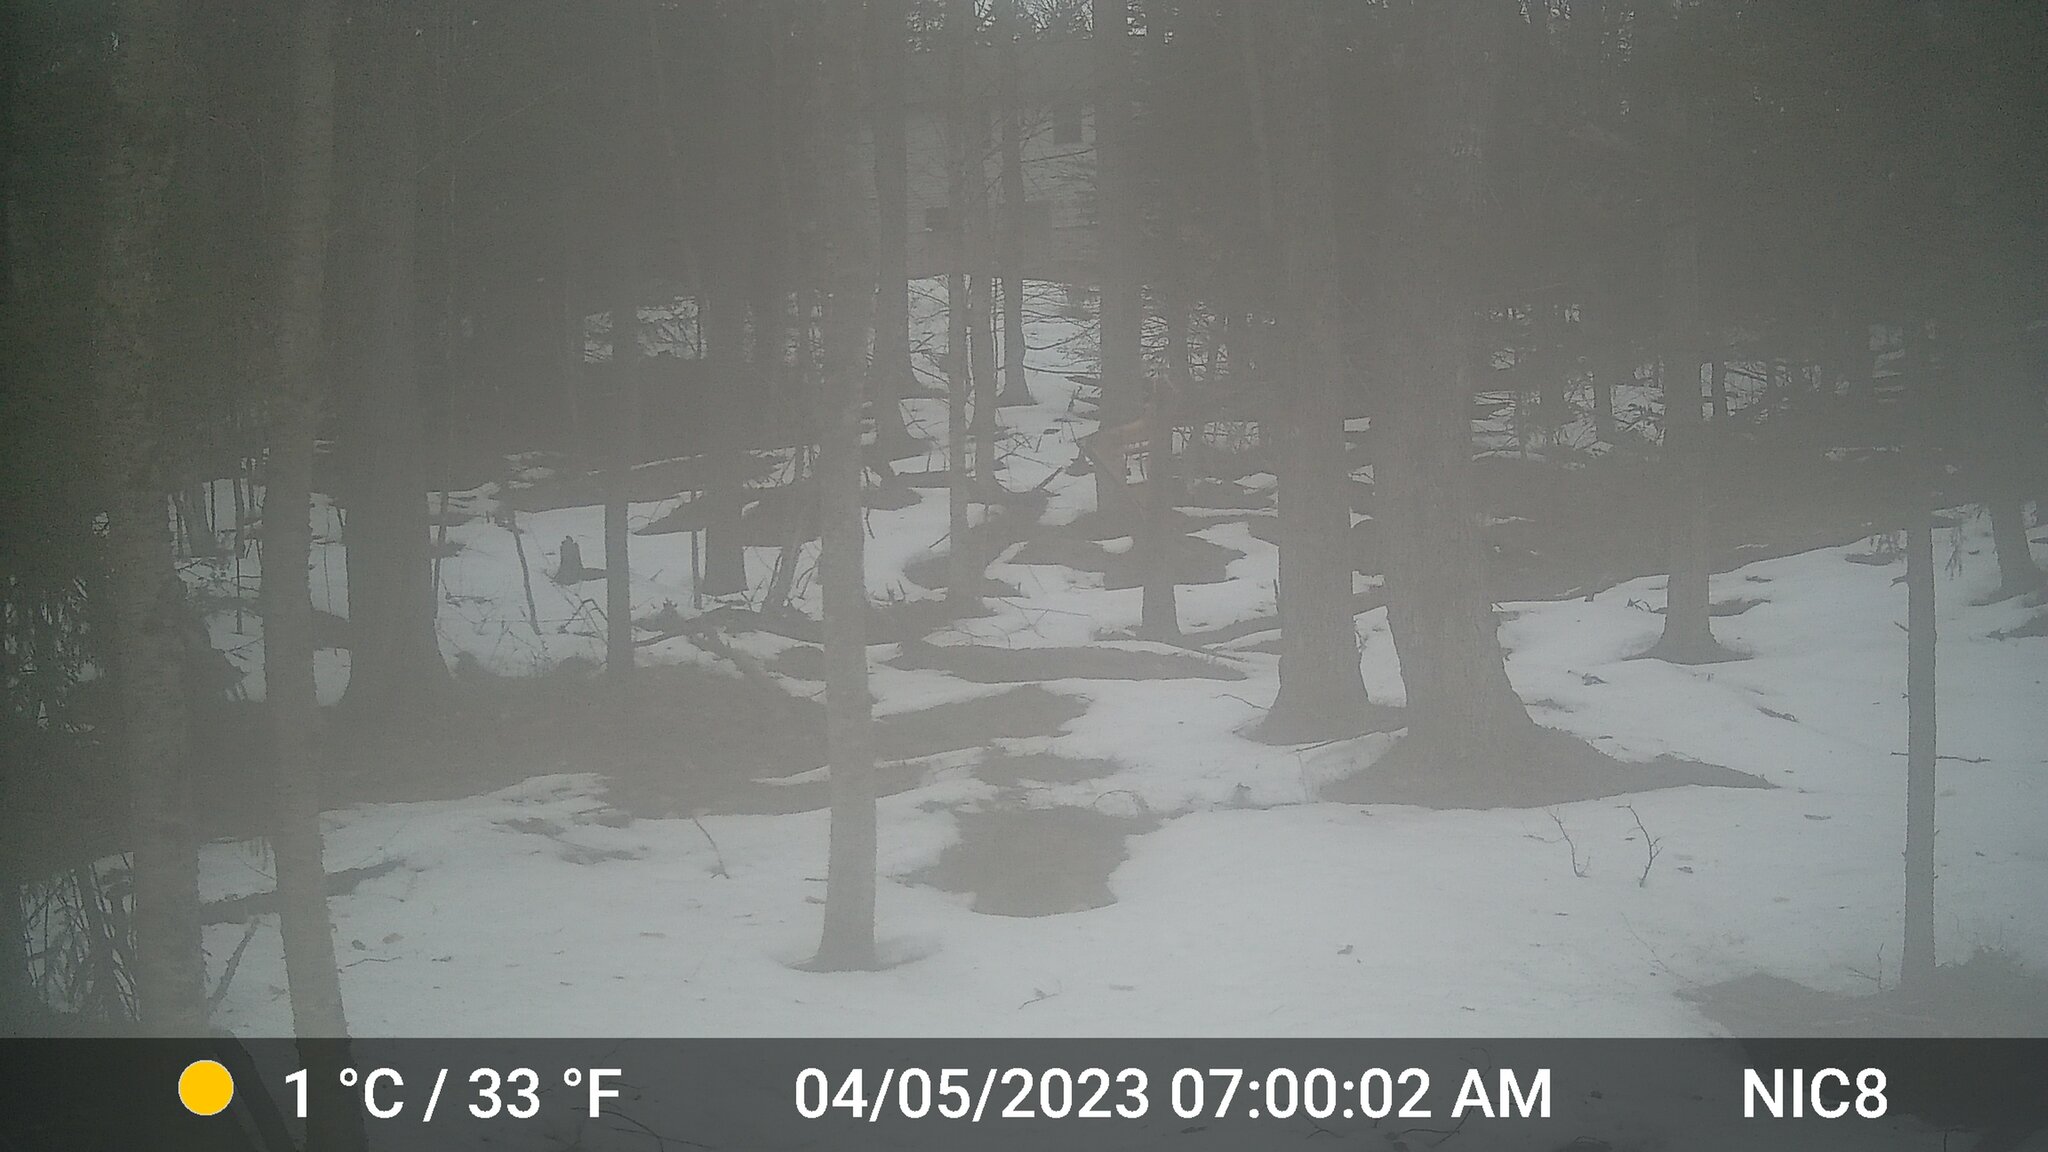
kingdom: Animalia
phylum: Chordata
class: Mammalia
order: Artiodactyla
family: Cervidae
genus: Odocoileus
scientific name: Odocoileus virginianus
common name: White-tailed deer
